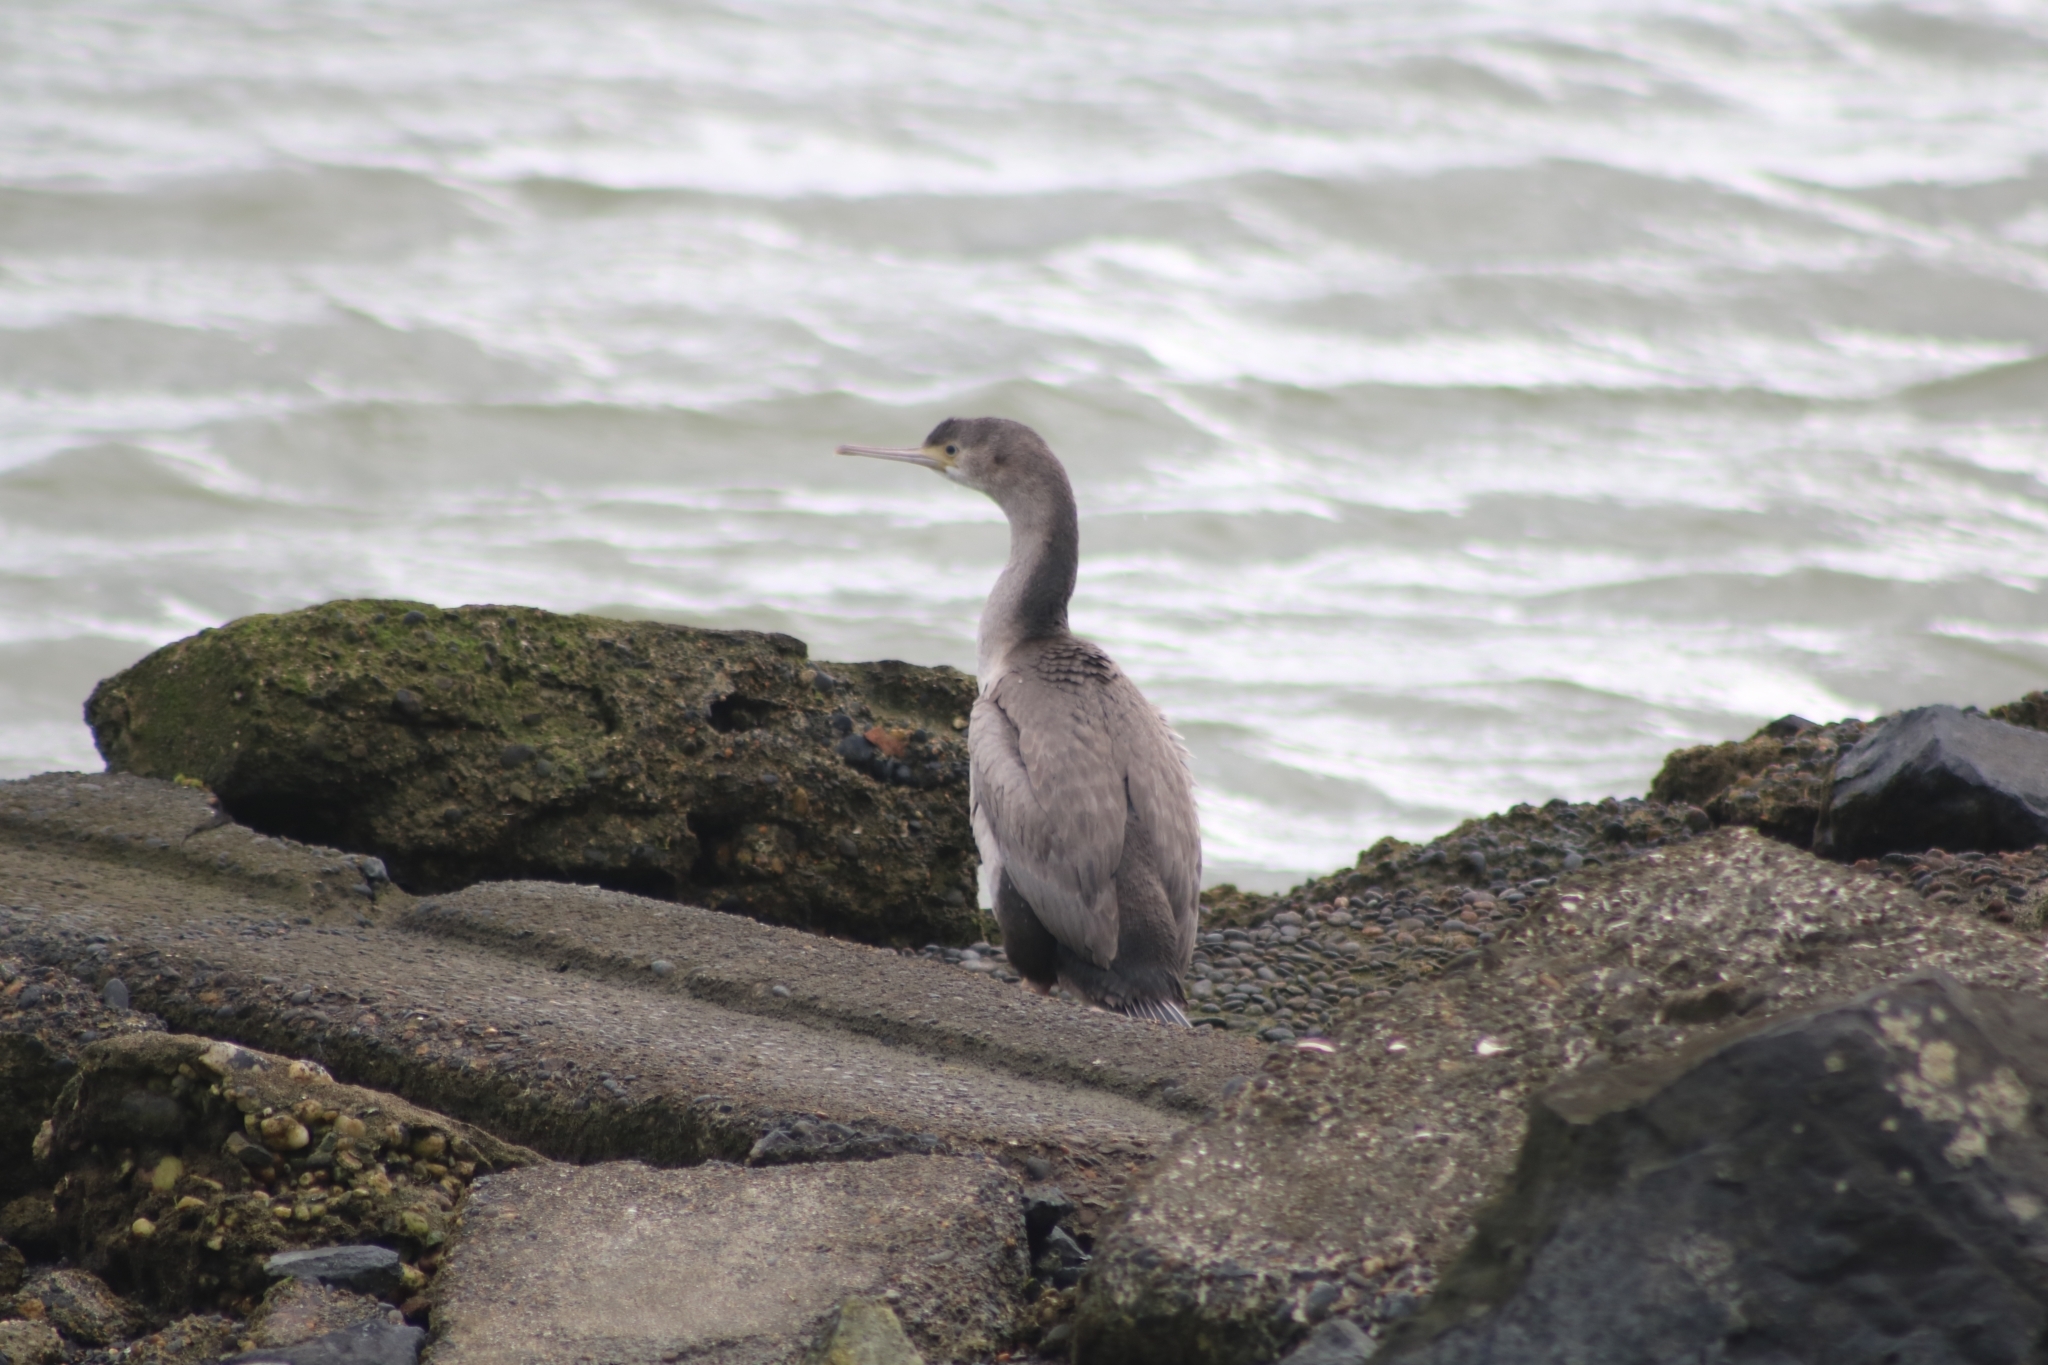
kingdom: Animalia
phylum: Chordata
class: Aves
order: Suliformes
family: Phalacrocoracidae
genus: Phalacrocorax
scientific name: Phalacrocorax punctatus
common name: Spotted shag
